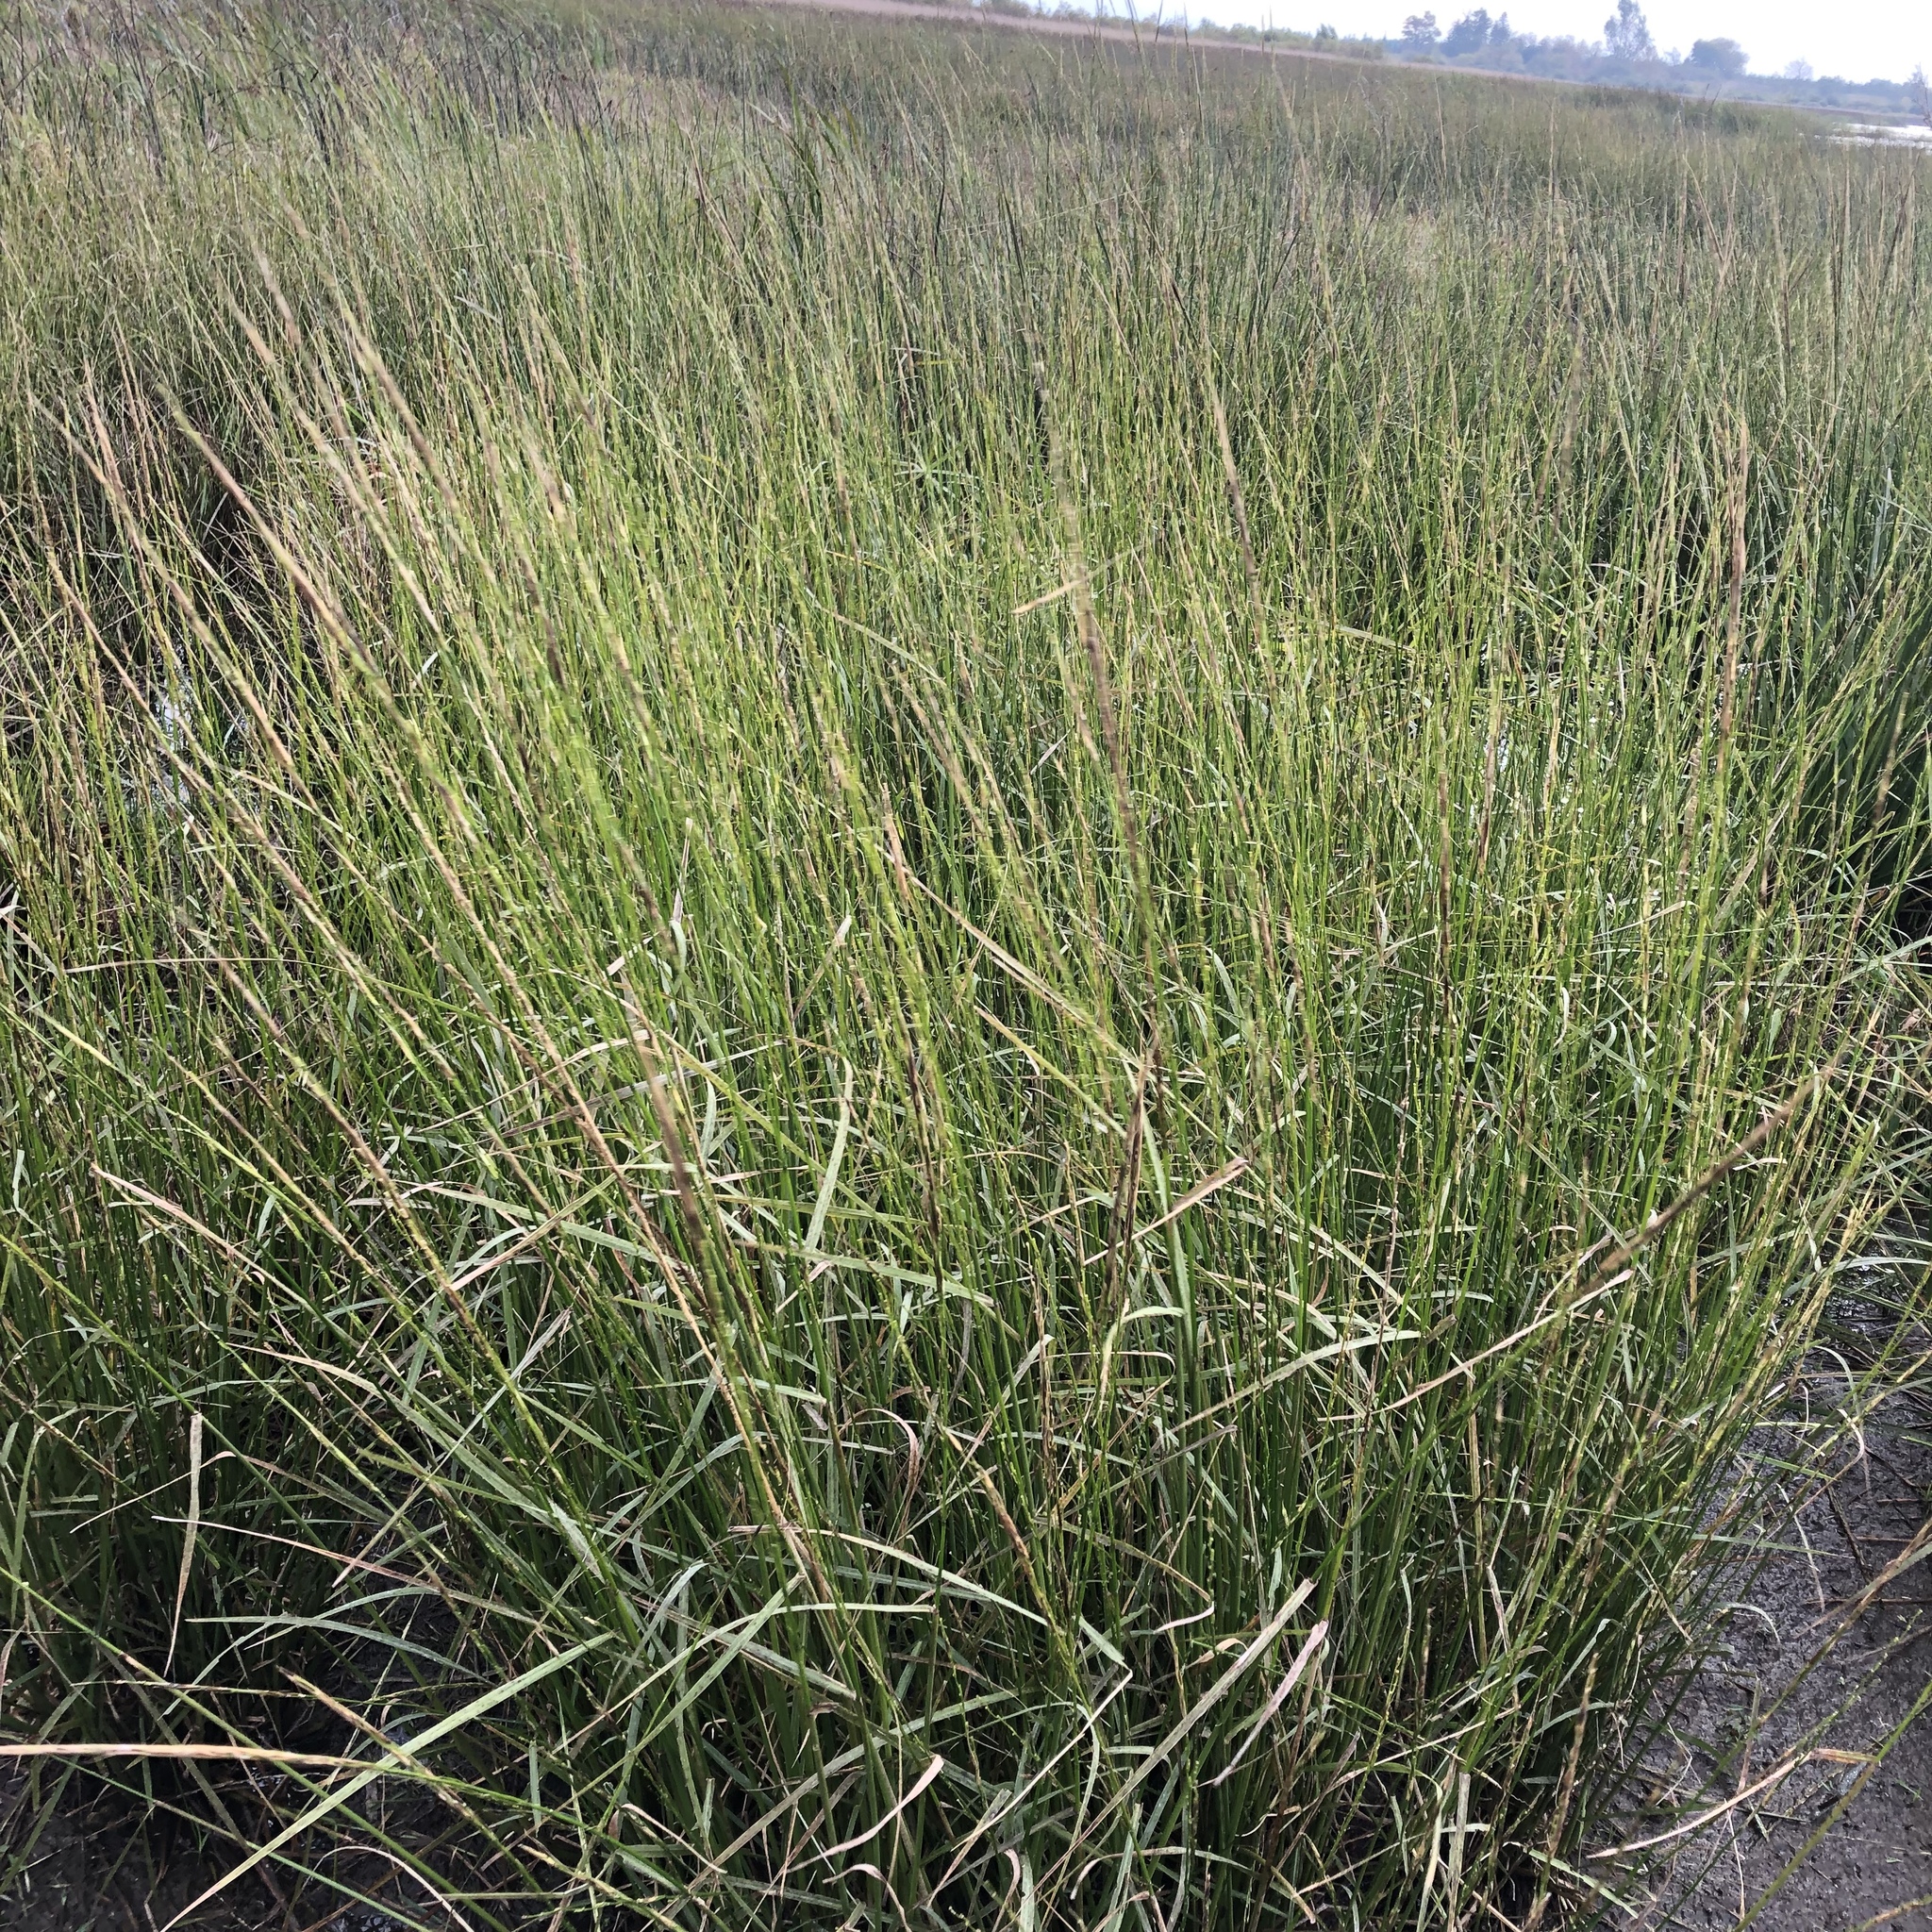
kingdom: Plantae
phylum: Tracheophyta
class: Liliopsida
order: Poales
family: Poaceae
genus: Zizania
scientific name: Zizania palustris
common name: Northern wild rice
